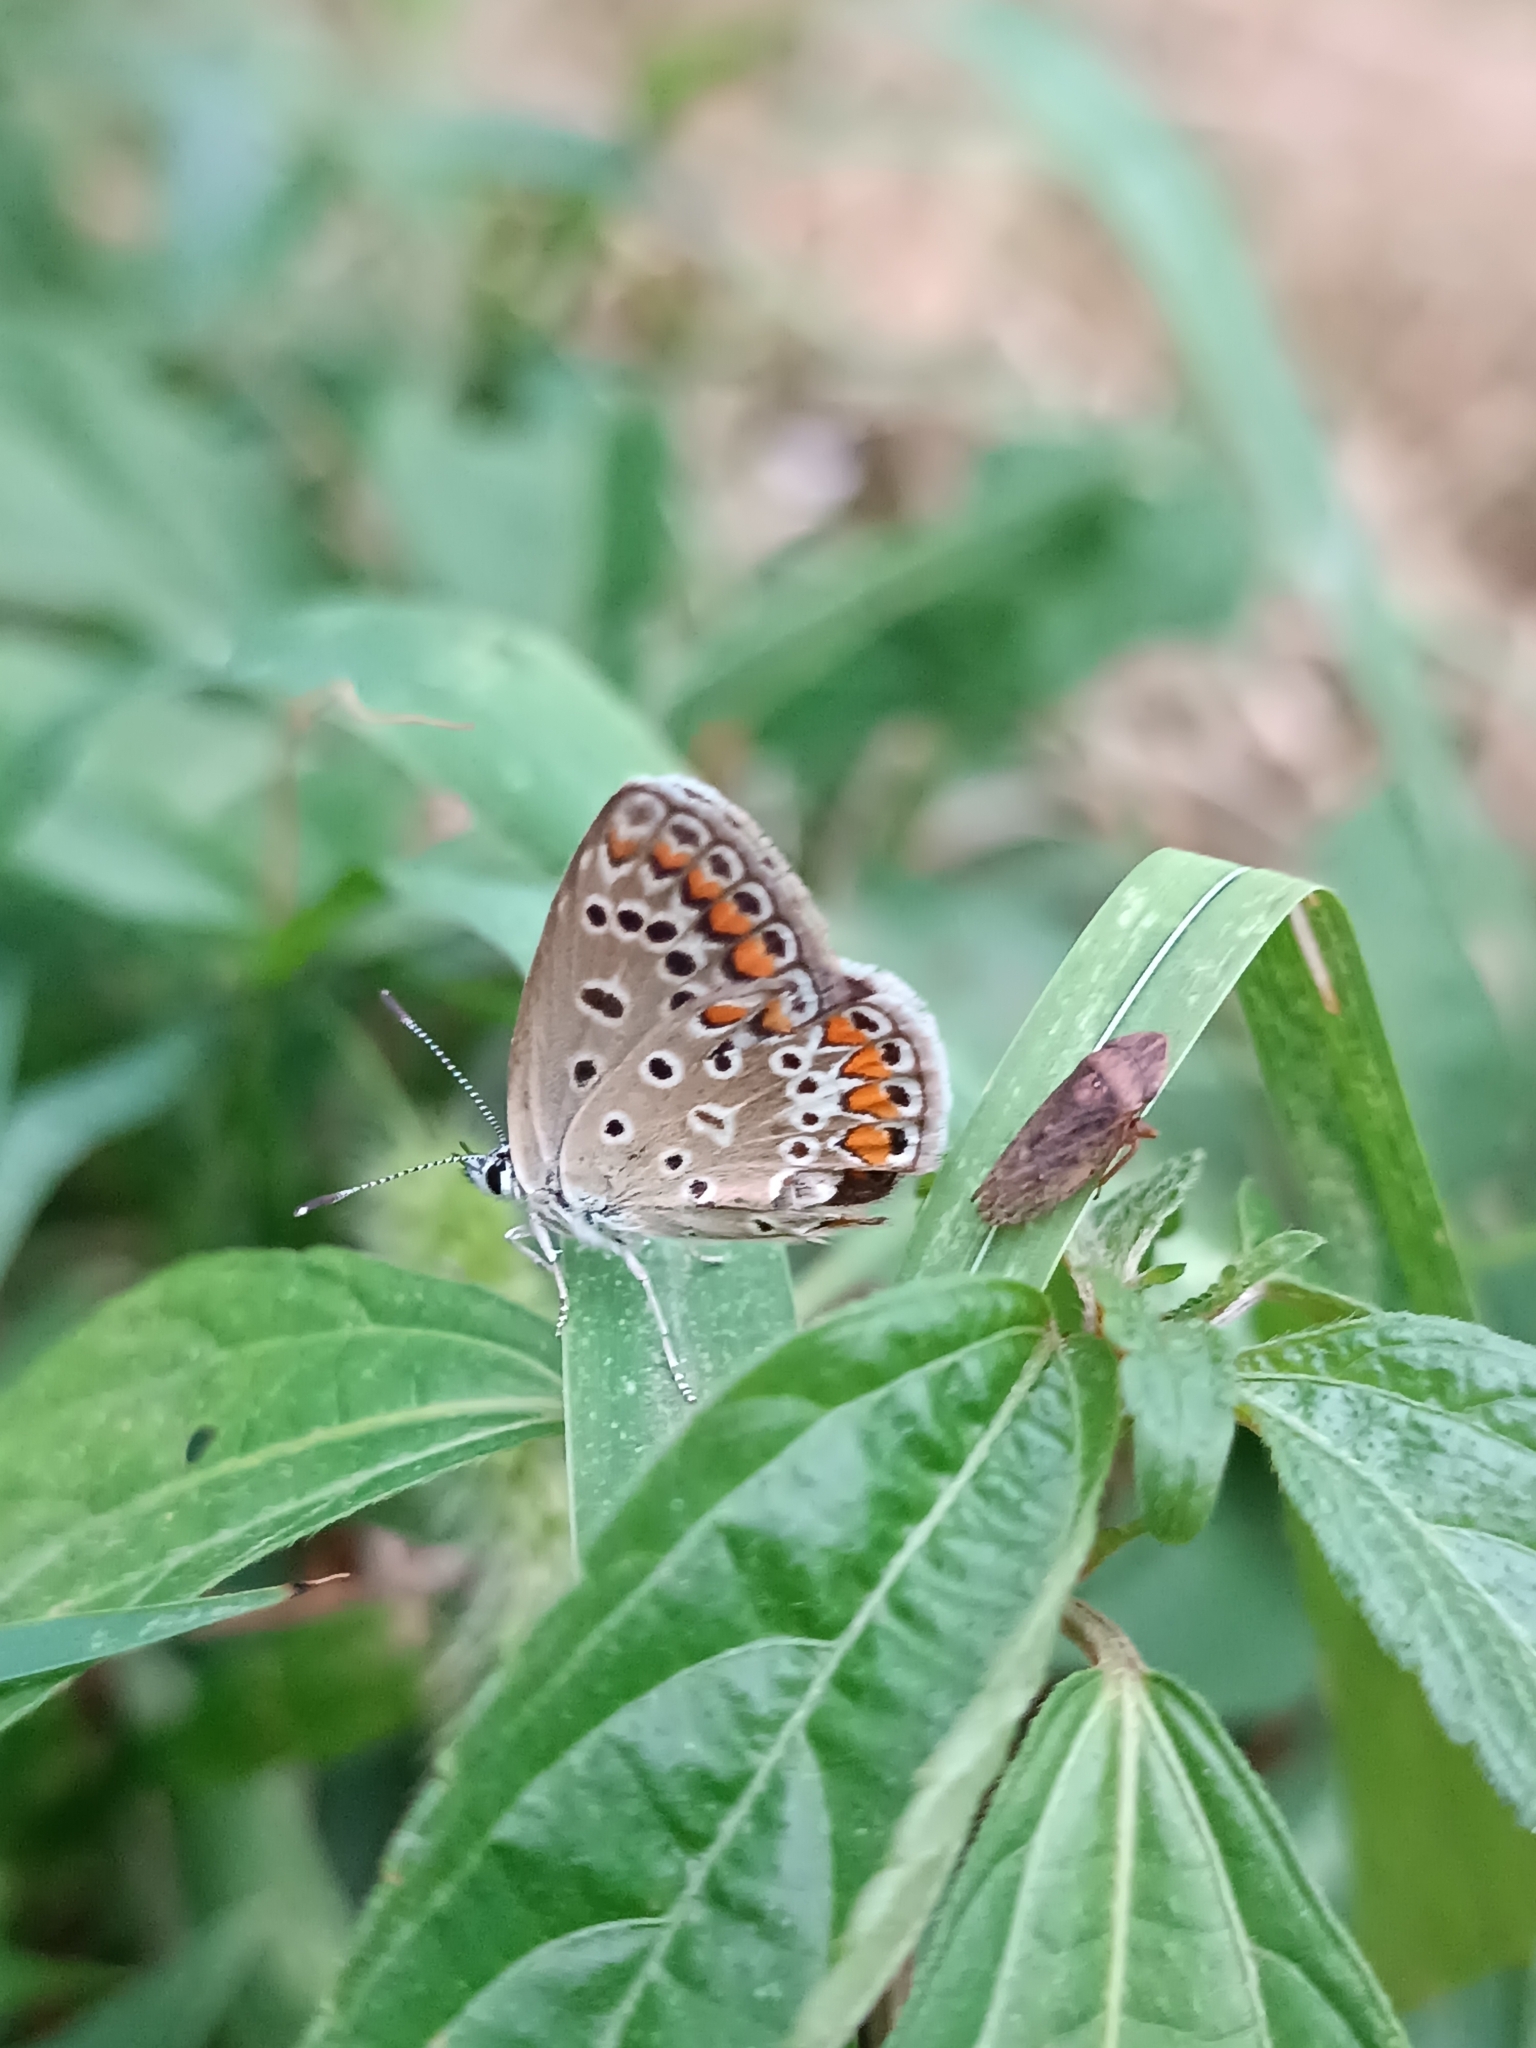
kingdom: Animalia
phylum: Arthropoda
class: Insecta
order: Lepidoptera
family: Lycaenidae
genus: Polyommatus
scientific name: Polyommatus icarus
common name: Common blue
